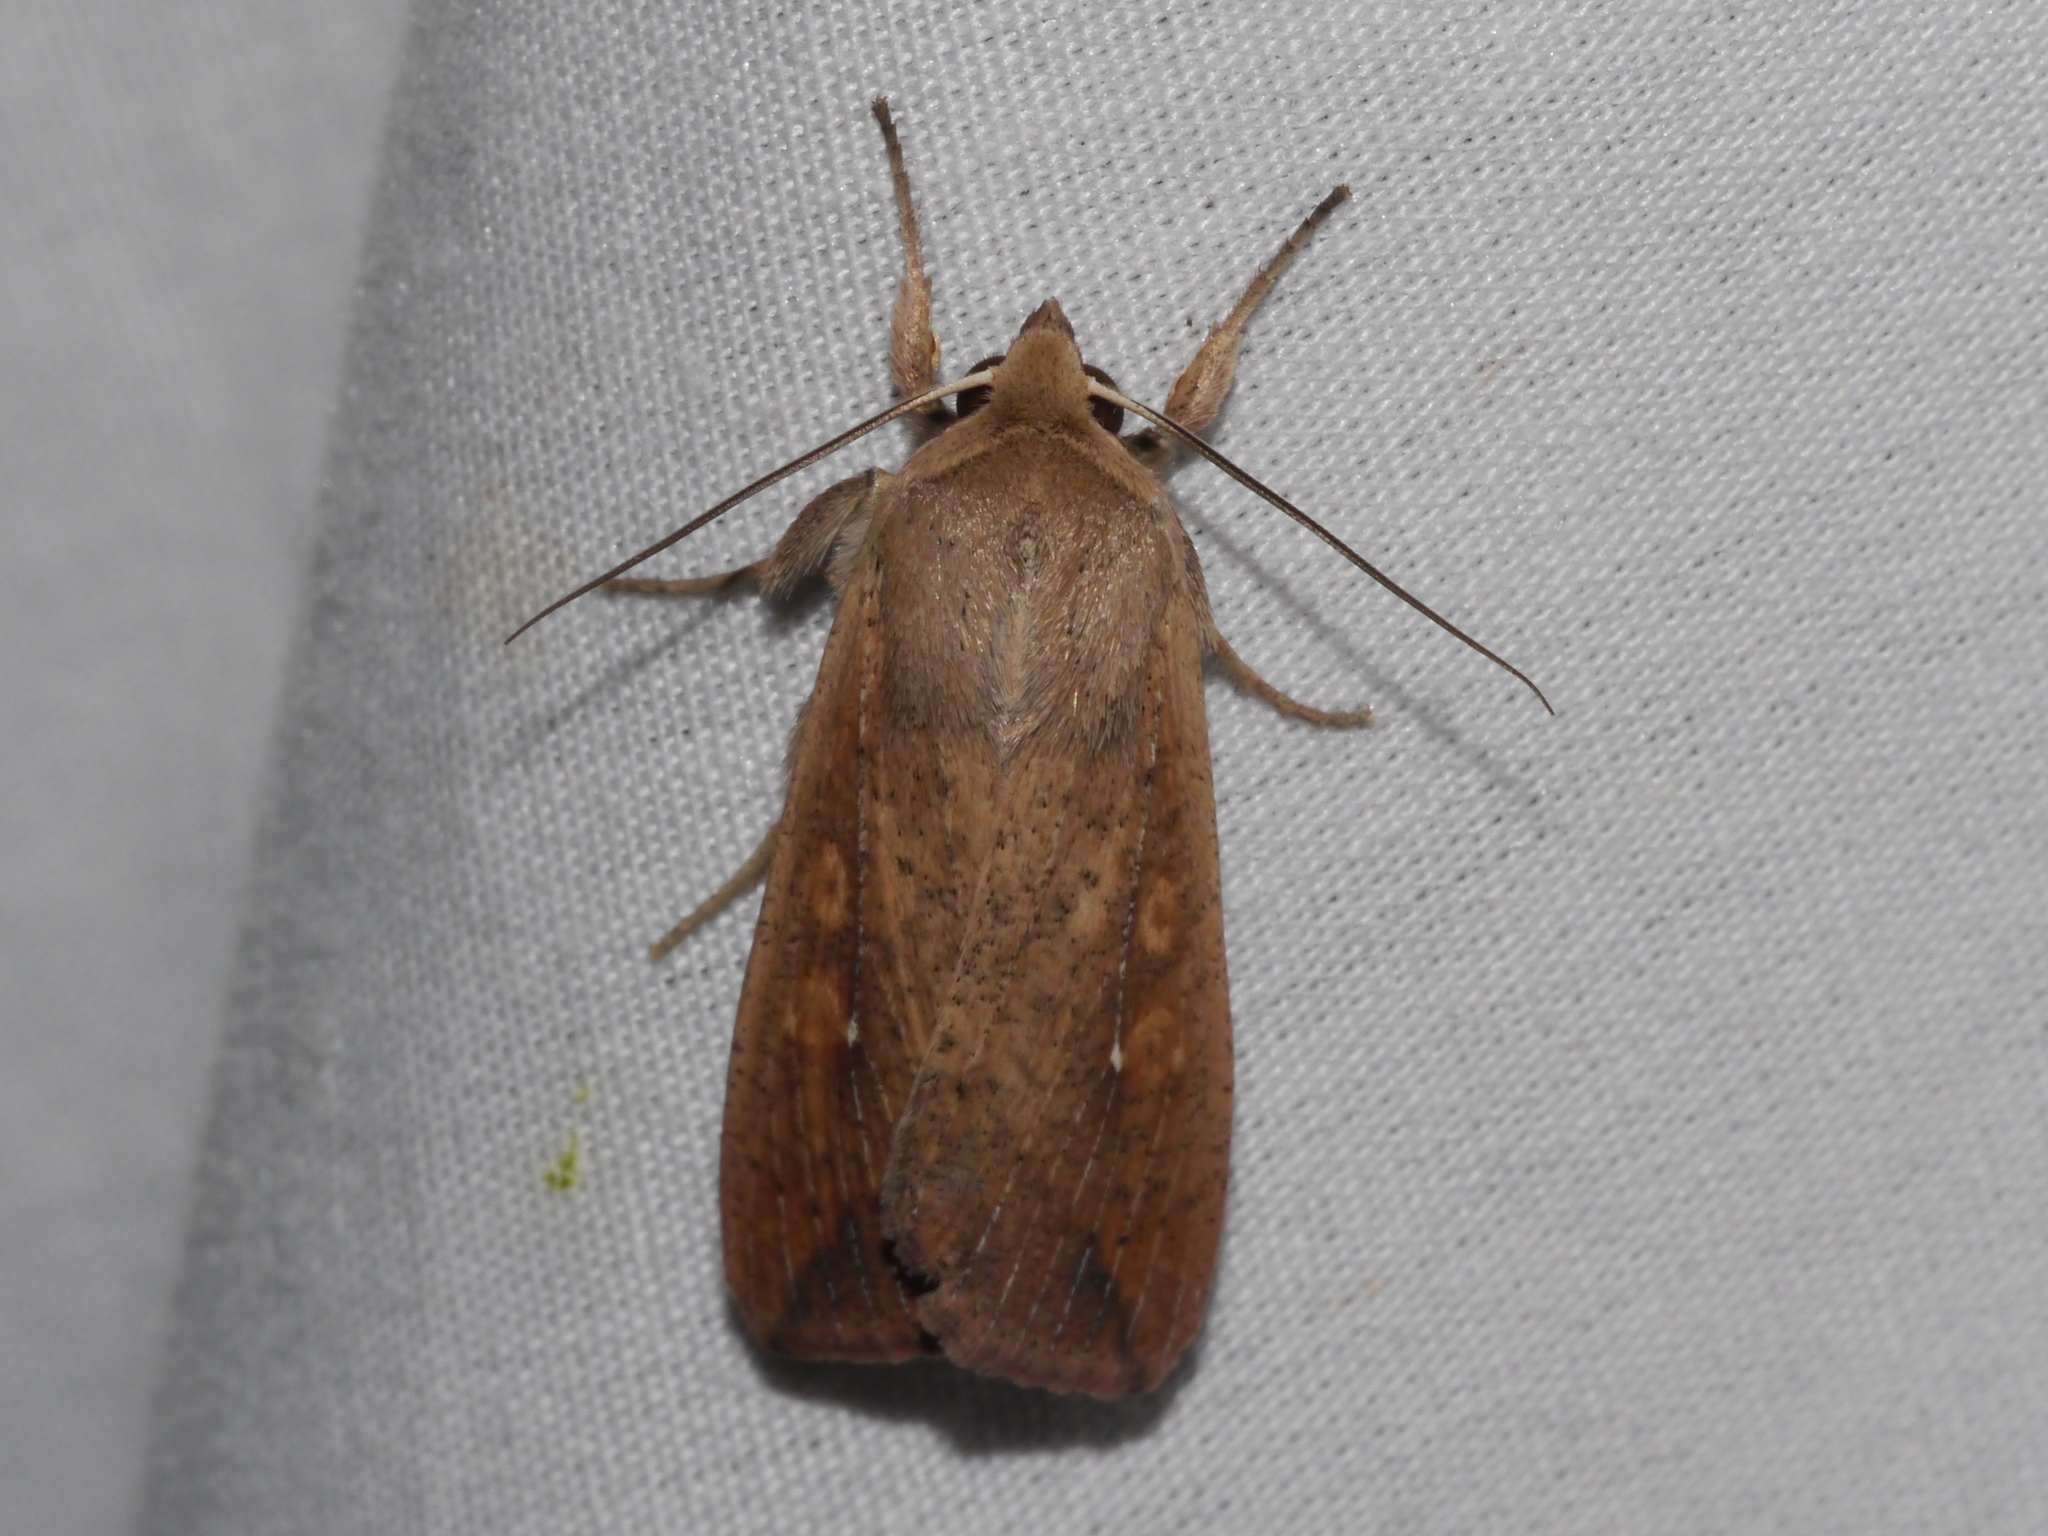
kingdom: Animalia
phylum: Arthropoda
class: Insecta
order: Lepidoptera
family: Noctuidae
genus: Mythimna
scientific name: Mythimna unipuncta
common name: White-speck
